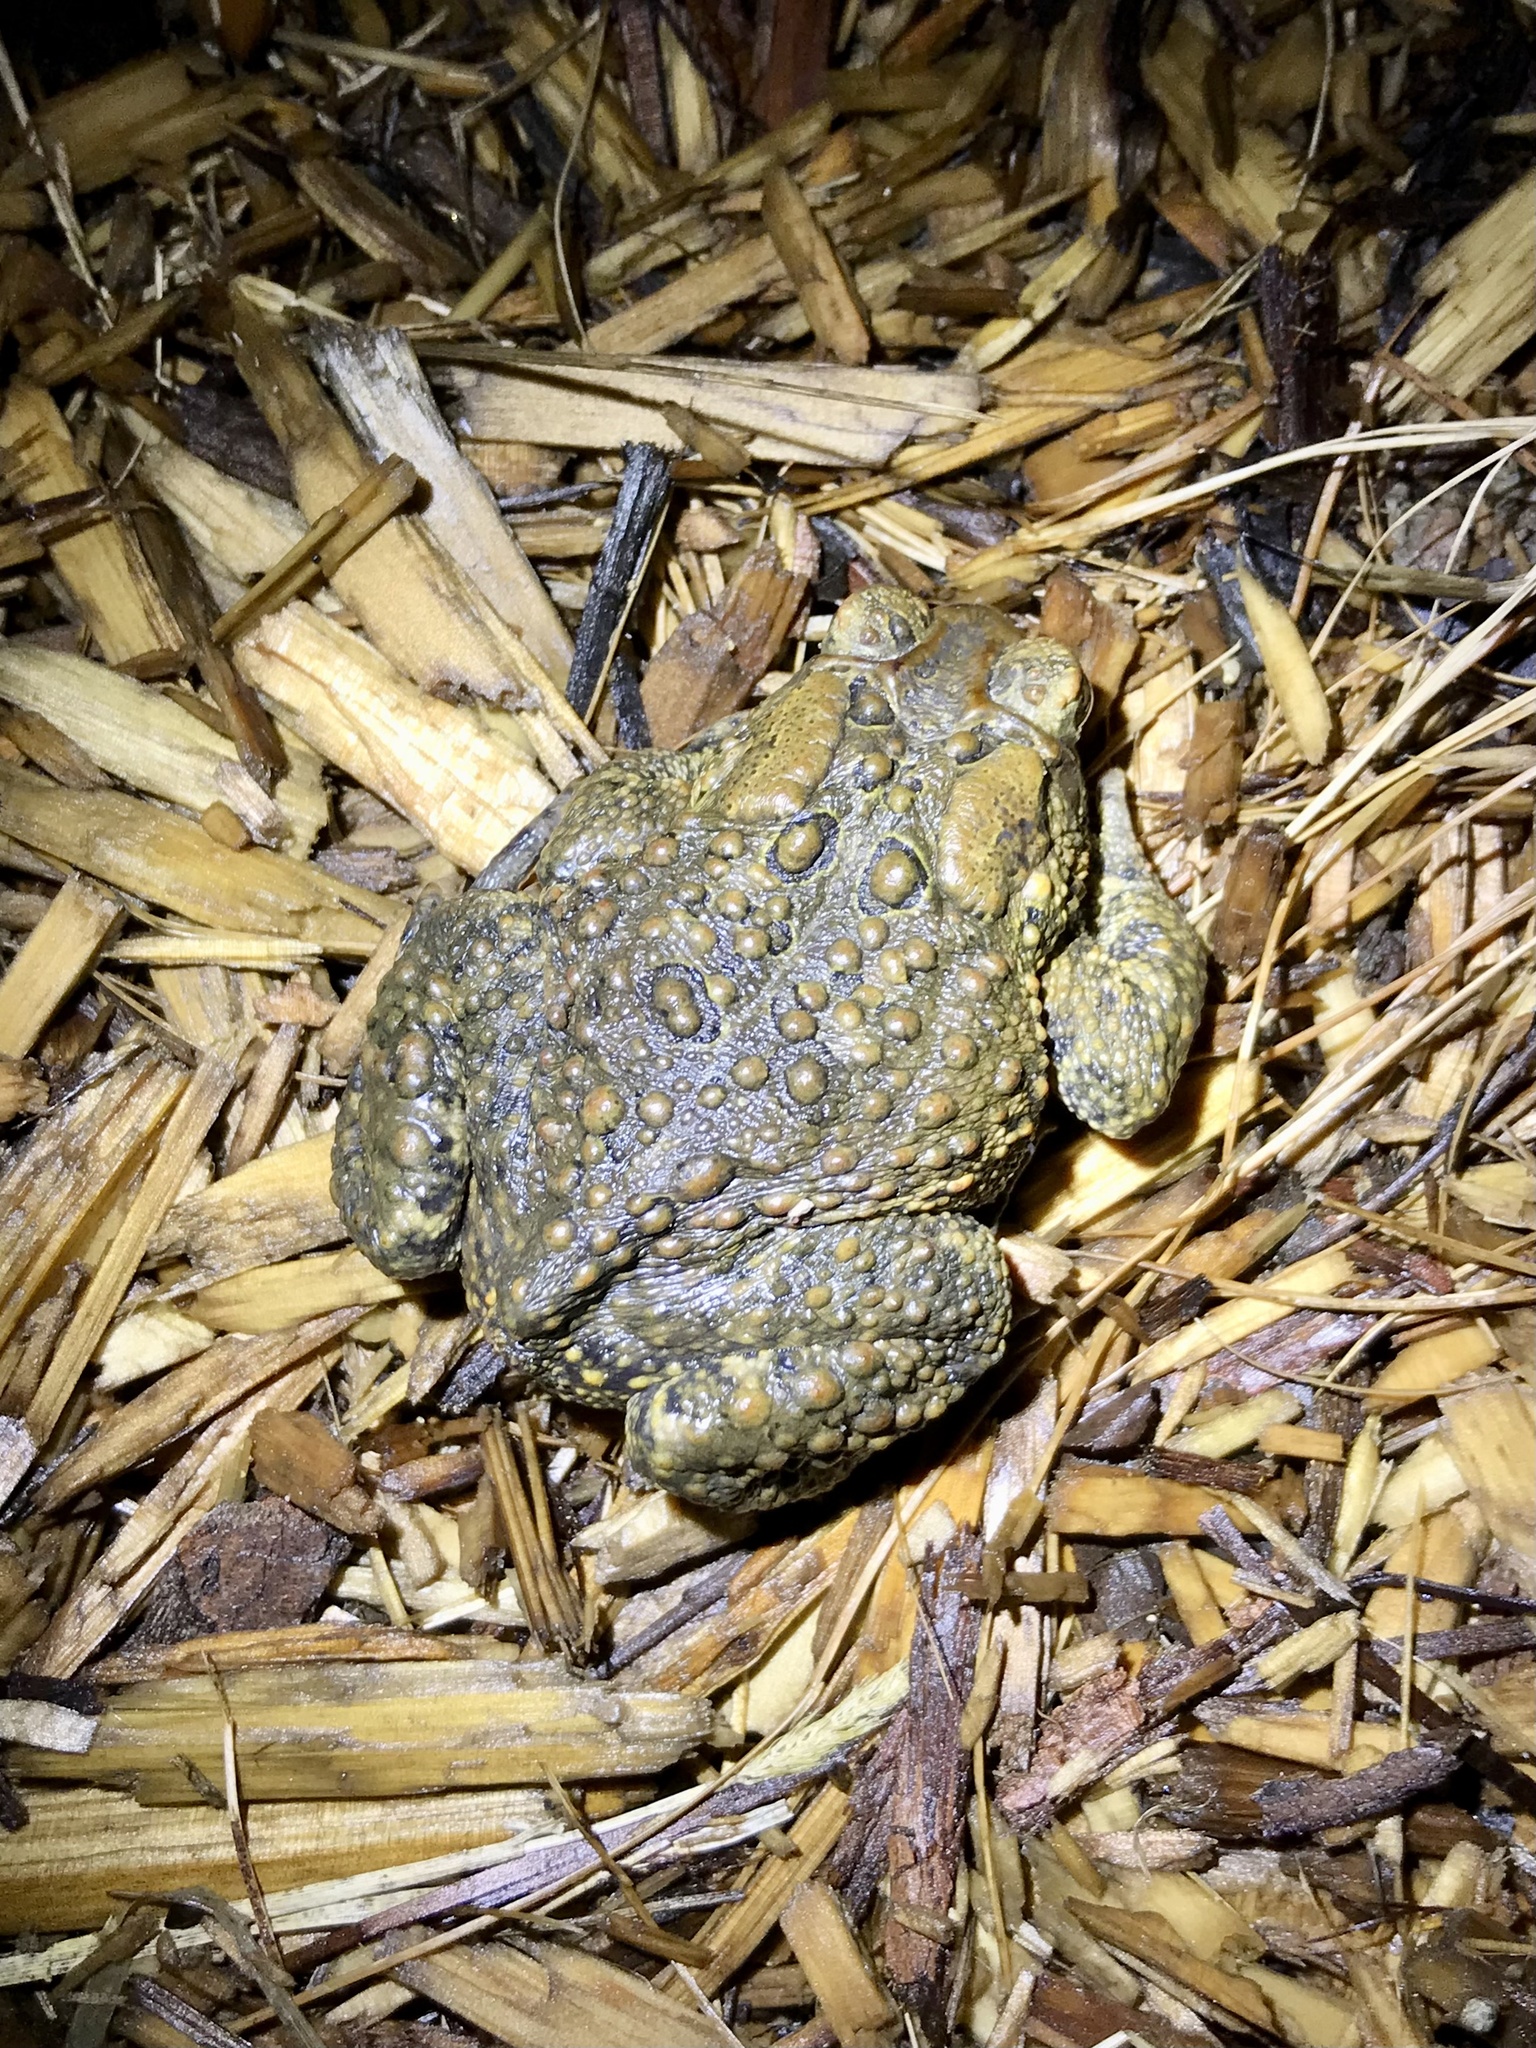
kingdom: Animalia
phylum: Chordata
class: Amphibia
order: Anura
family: Bufonidae
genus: Anaxyrus
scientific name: Anaxyrus americanus
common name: American toad
